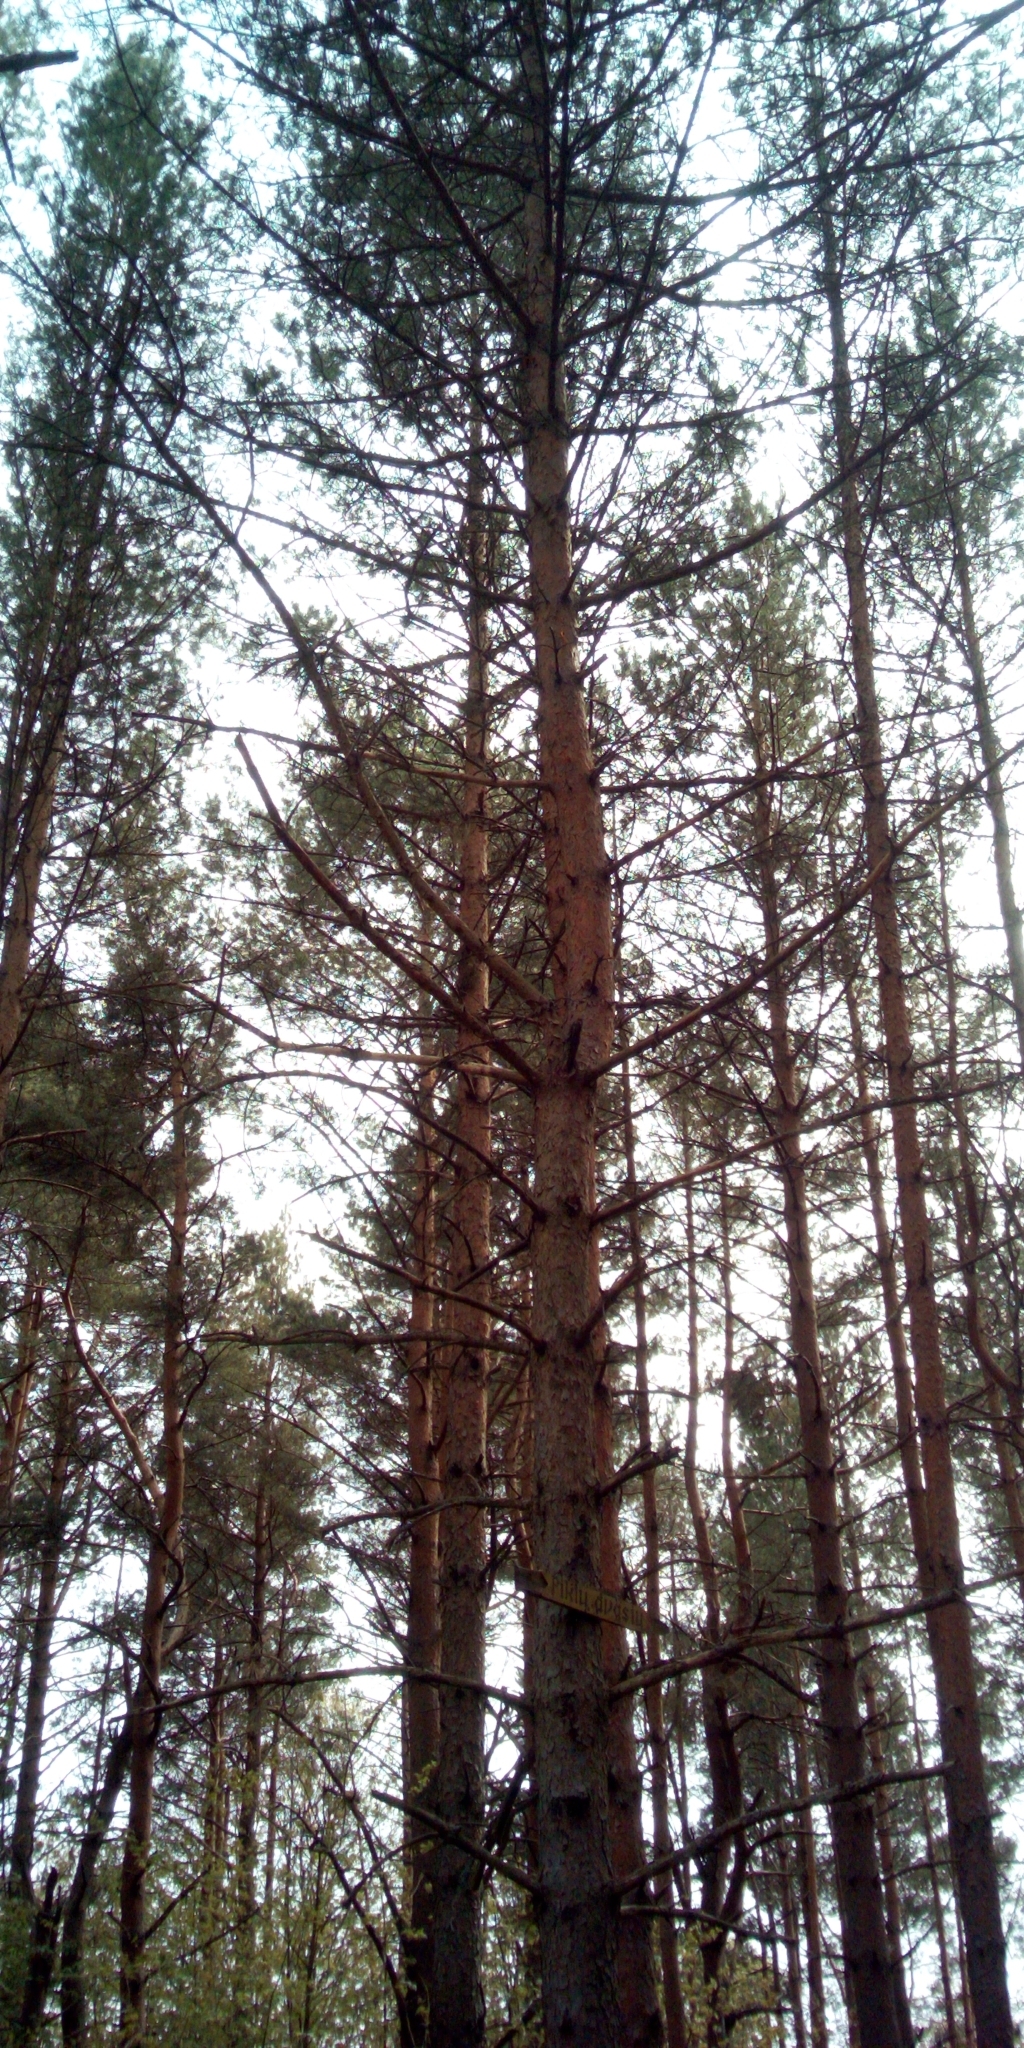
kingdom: Plantae
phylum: Tracheophyta
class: Pinopsida
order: Pinales
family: Pinaceae
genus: Pinus
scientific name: Pinus sylvestris
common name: Scots pine
